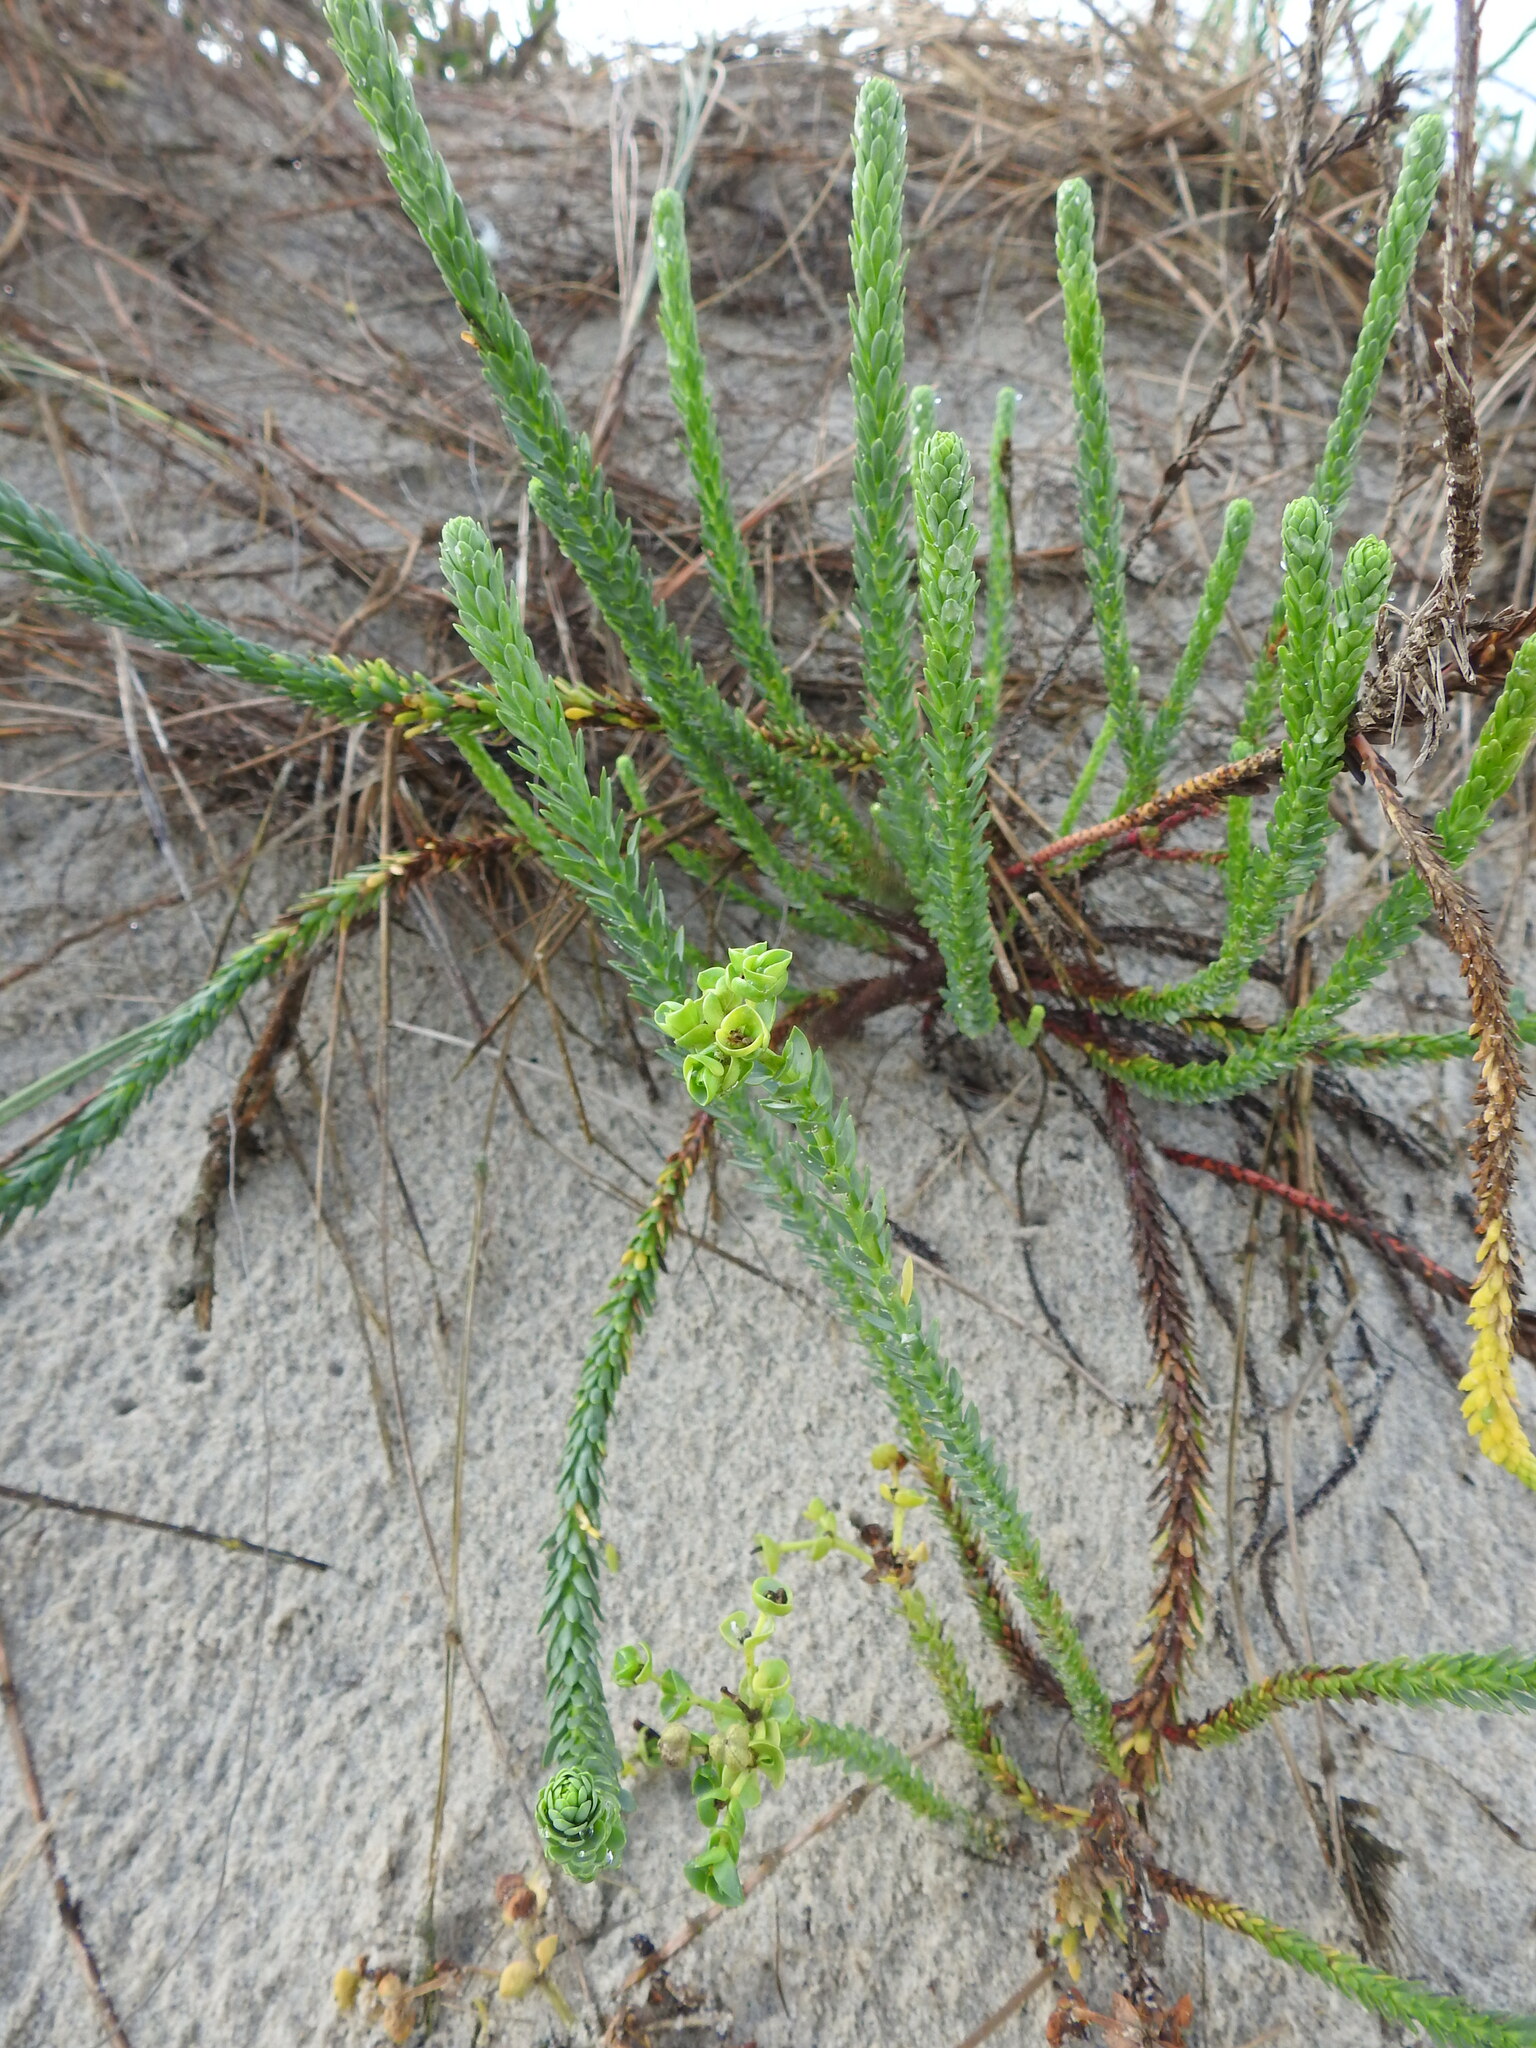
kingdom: Plantae
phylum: Tracheophyta
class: Magnoliopsida
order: Malpighiales
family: Euphorbiaceae
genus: Euphorbia
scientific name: Euphorbia paralias
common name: Sea spurge
